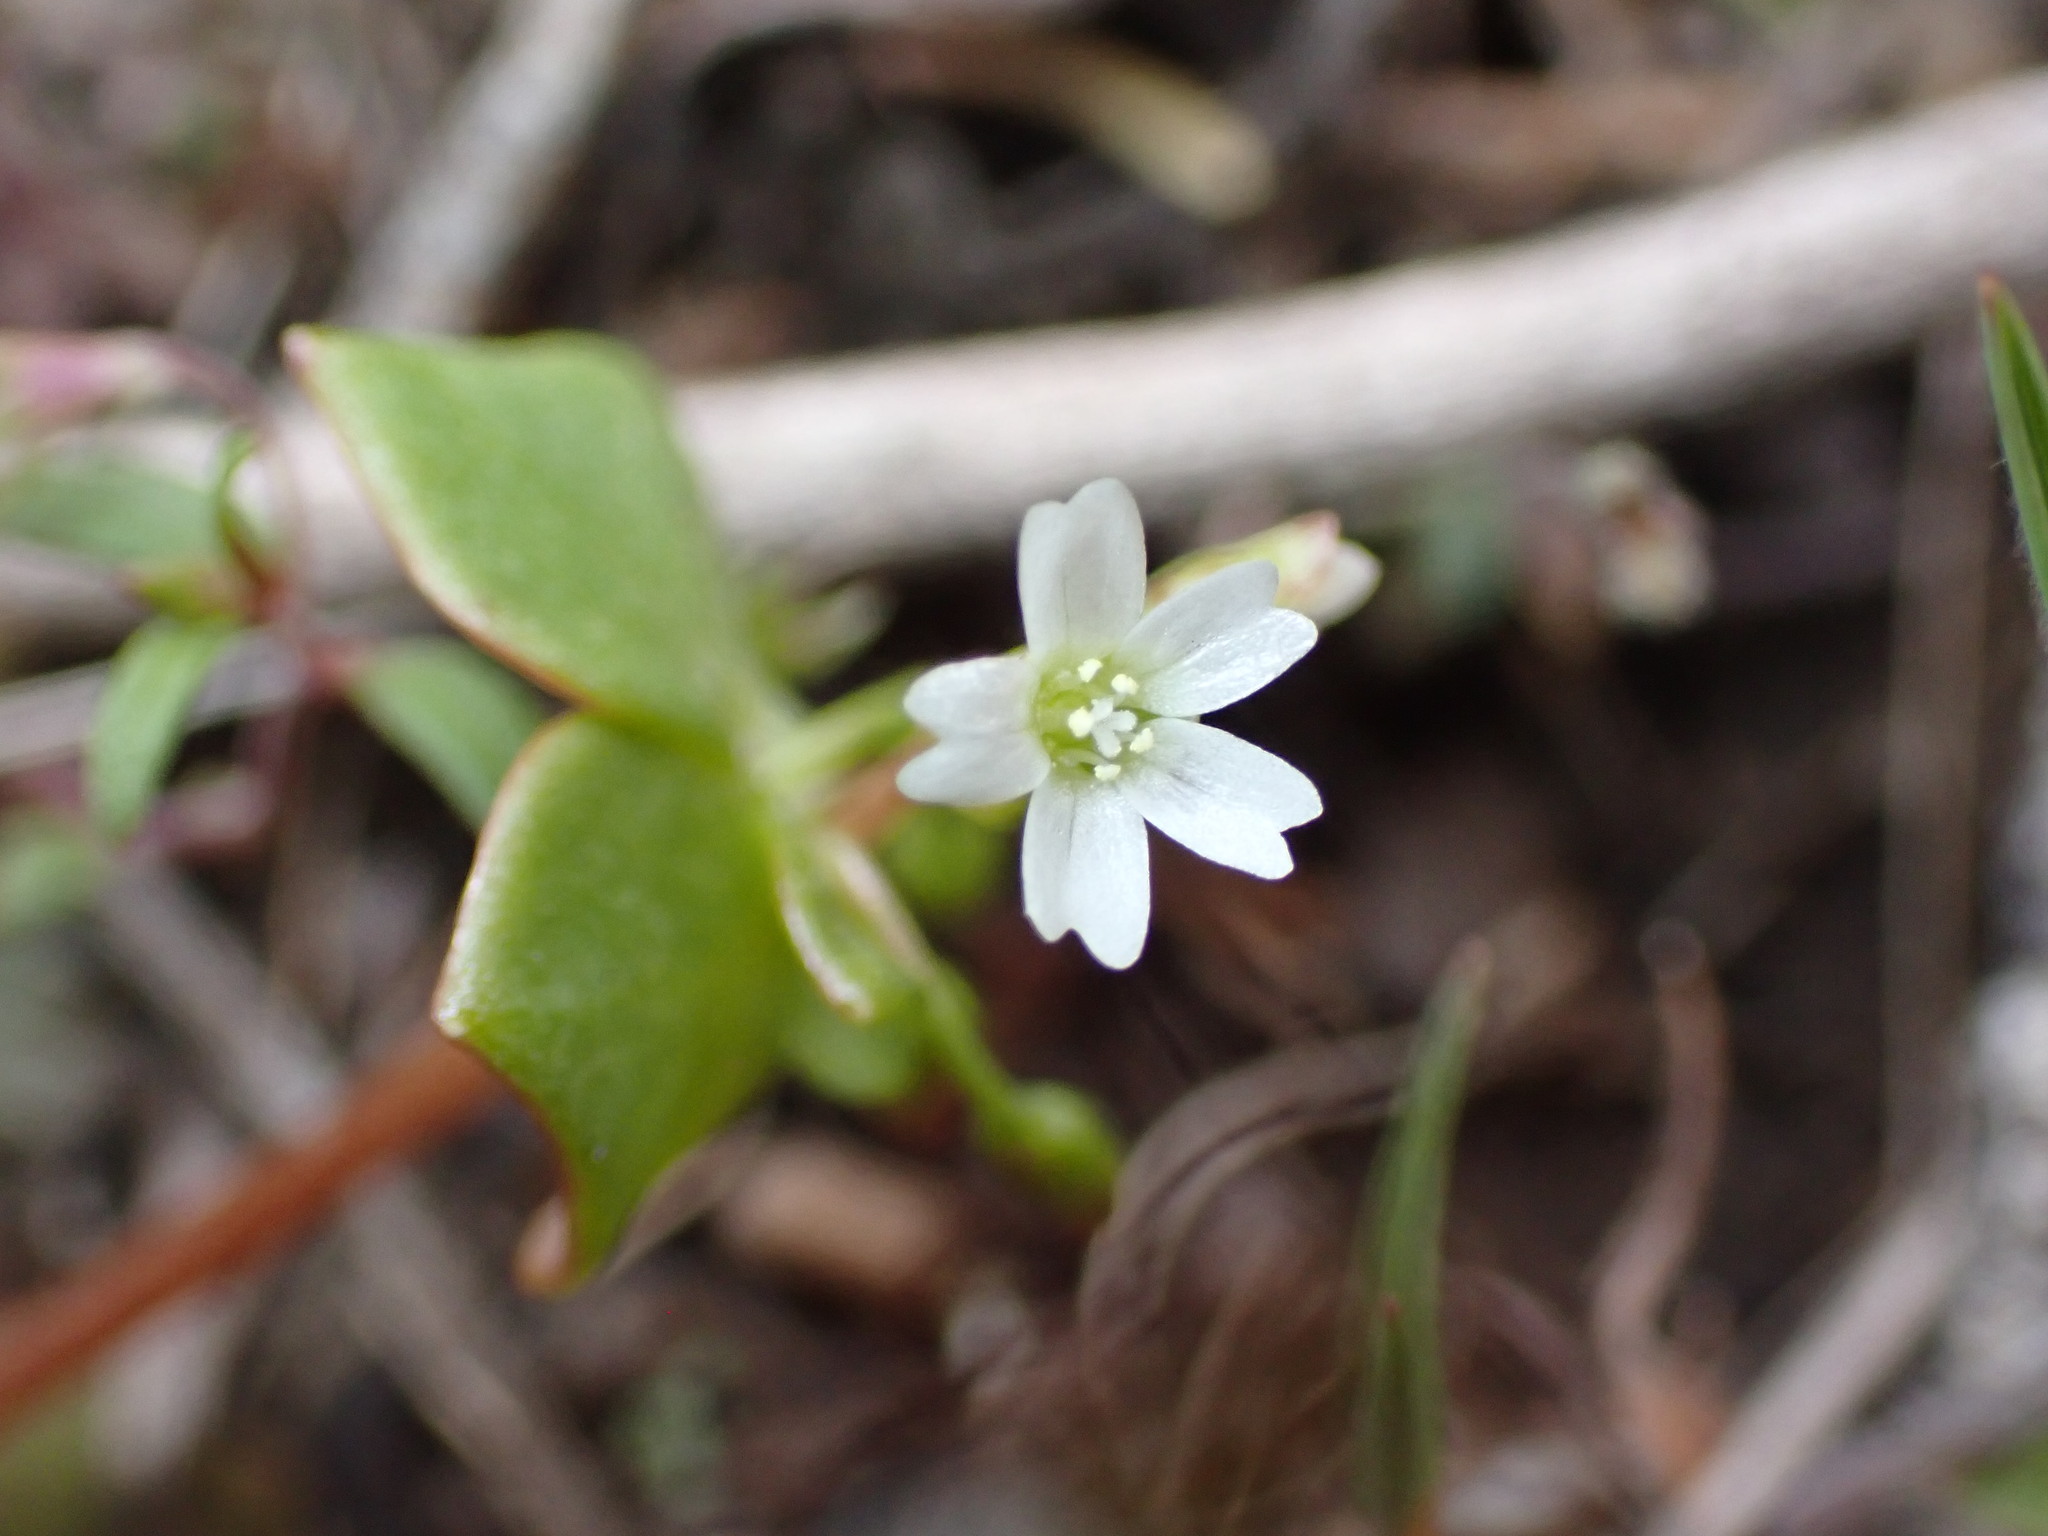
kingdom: Plantae
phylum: Tracheophyta
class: Magnoliopsida
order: Caryophyllales
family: Montiaceae
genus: Claytonia
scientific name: Claytonia rubra
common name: Erubescent miner's-lettuce
